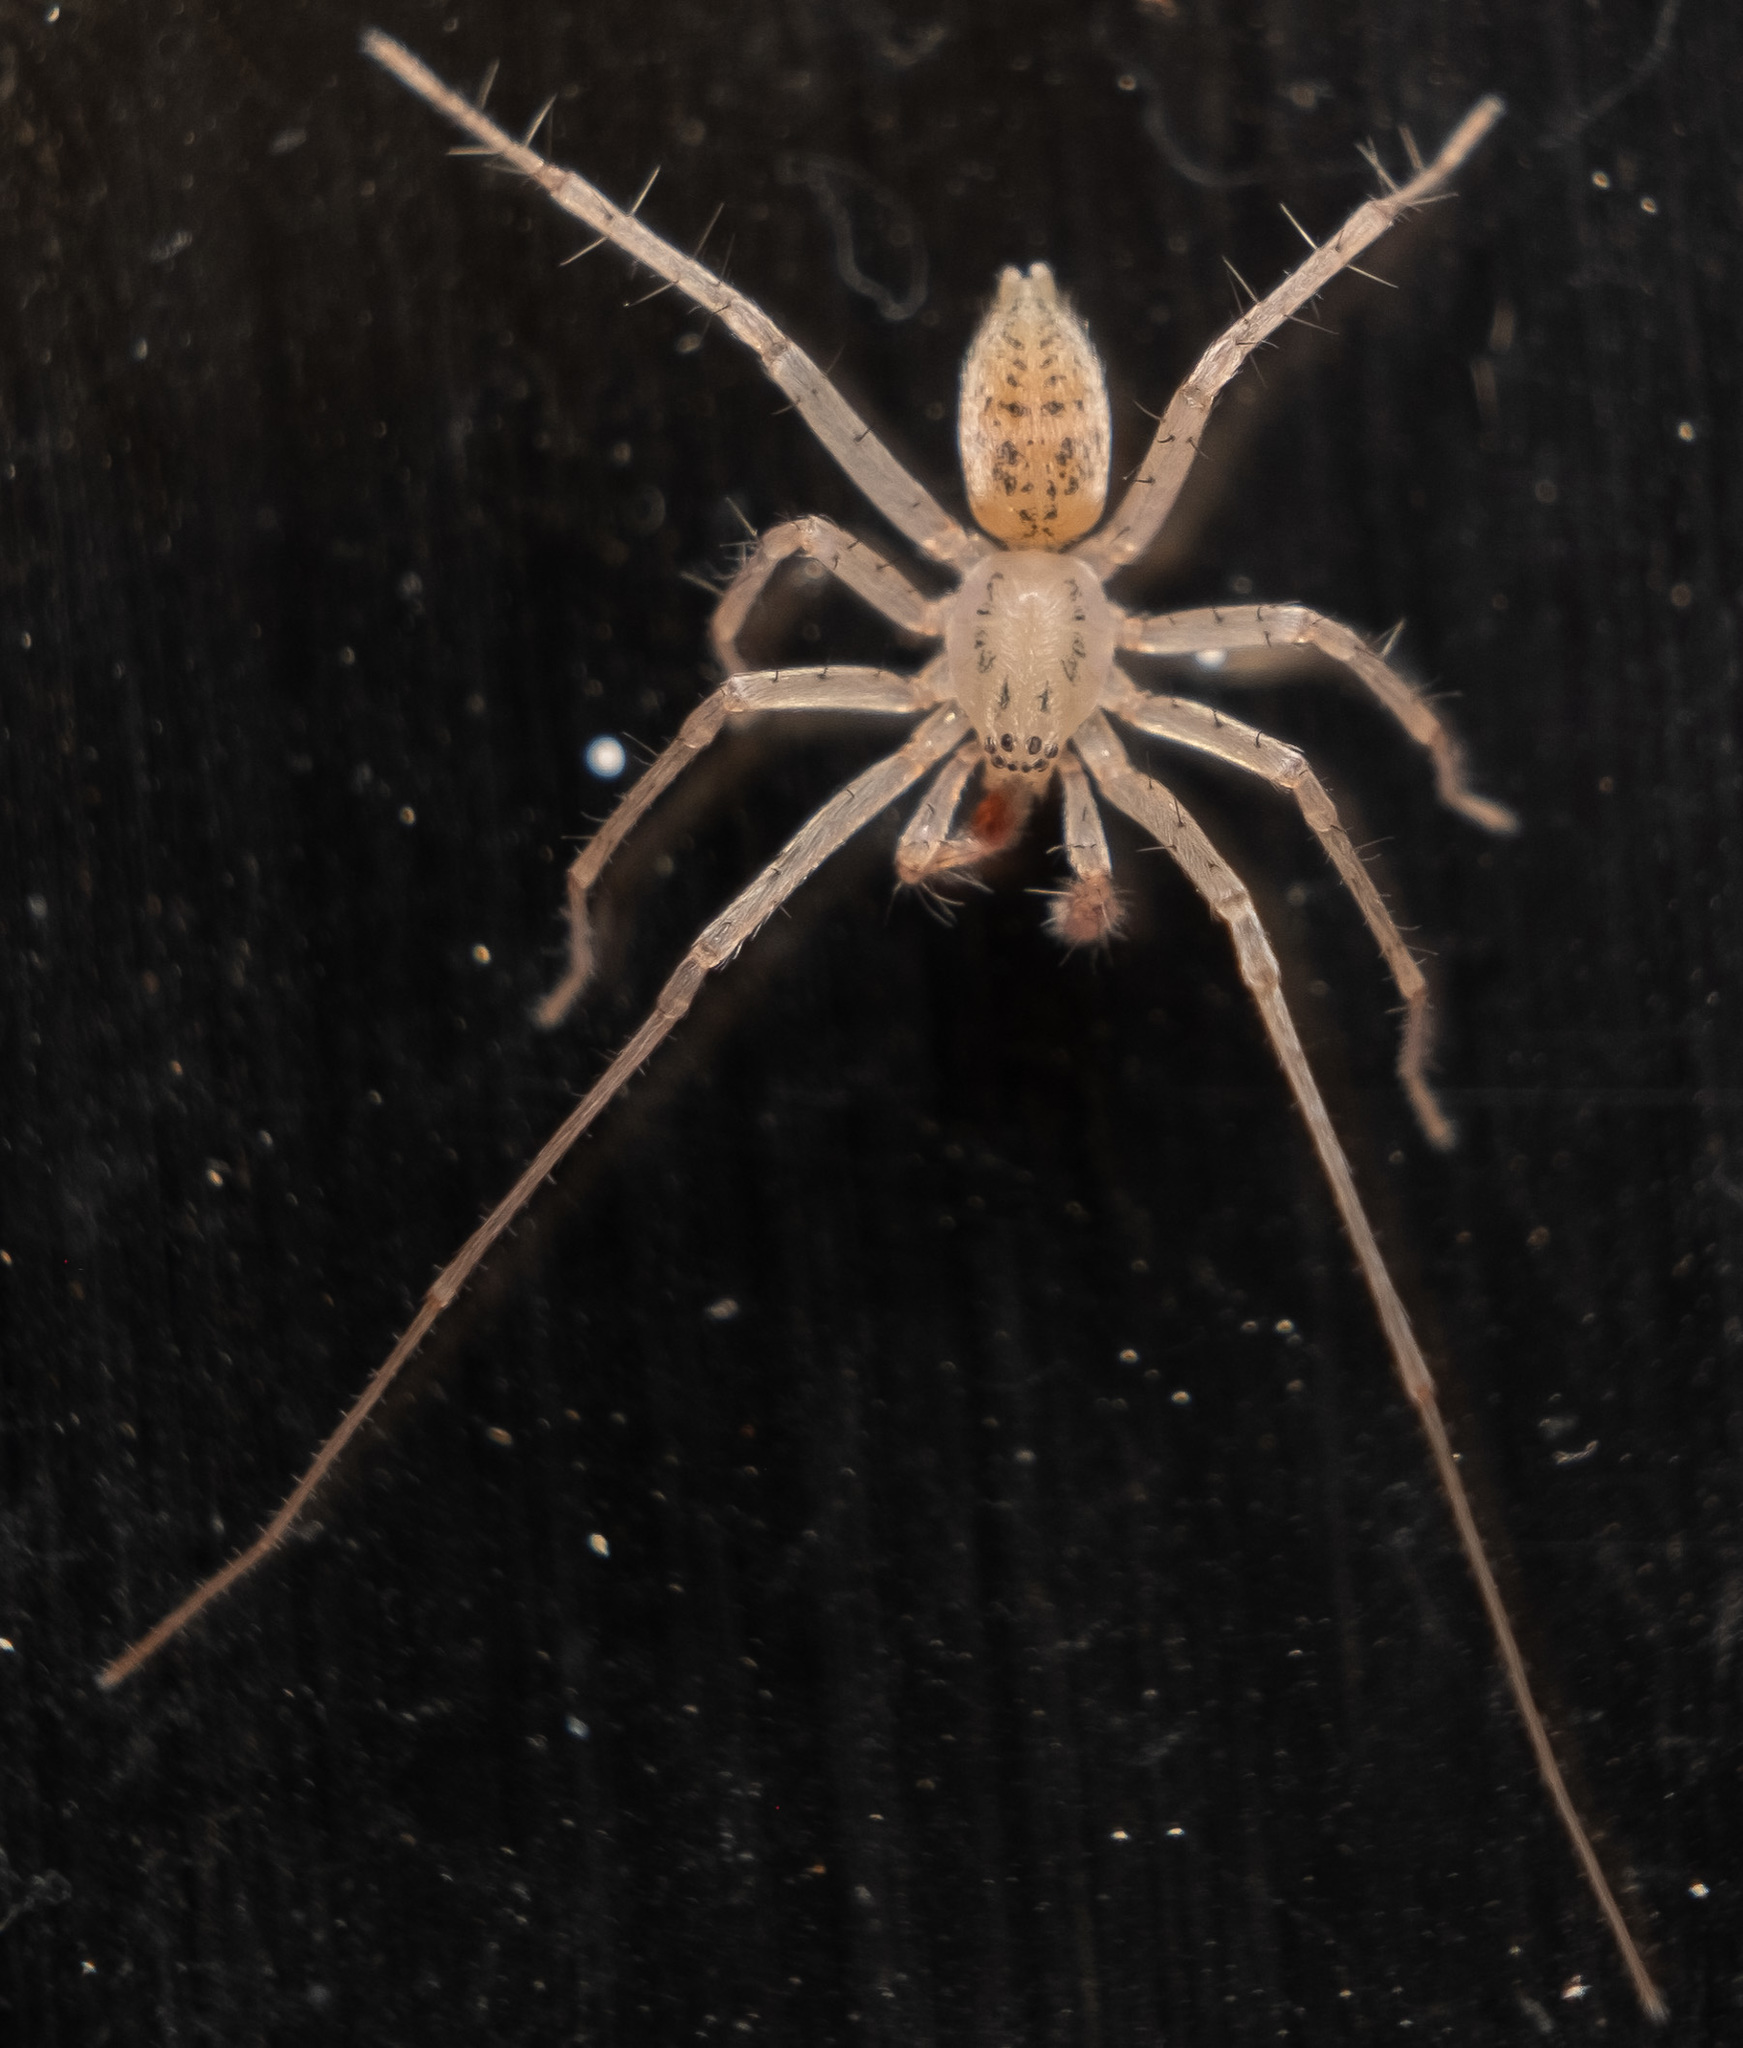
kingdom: Animalia
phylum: Arthropoda
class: Arachnida
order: Araneae
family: Anyphaenidae
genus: Wulfila
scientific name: Wulfila saltabundus
